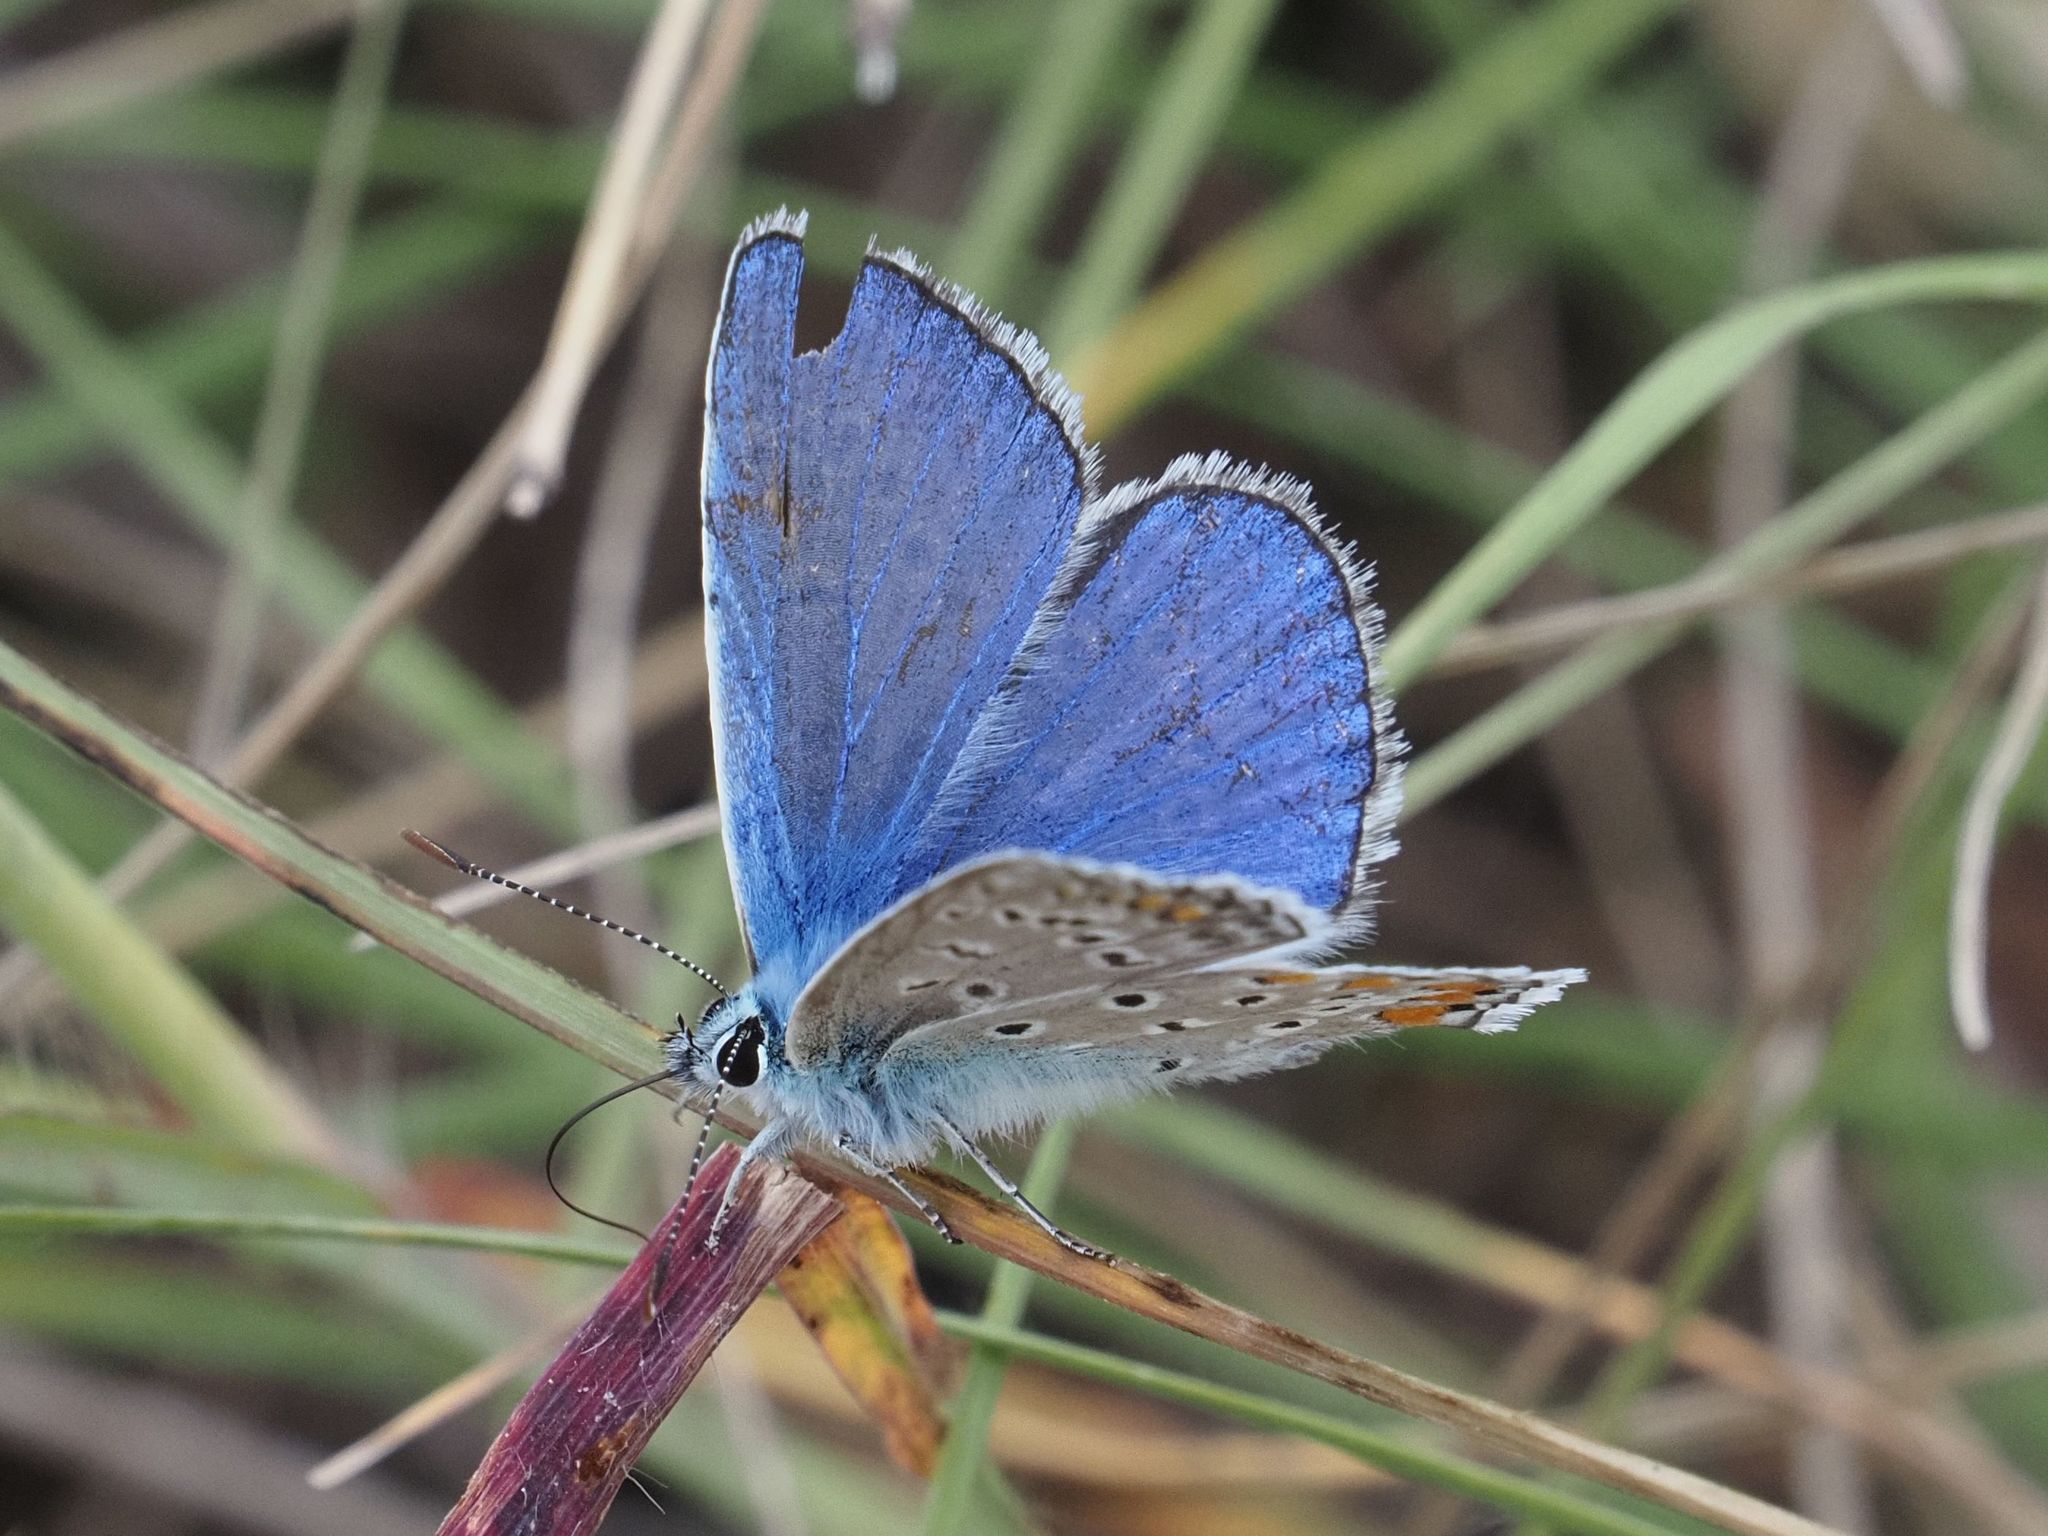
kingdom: Animalia
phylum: Arthropoda
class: Insecta
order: Lepidoptera
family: Lycaenidae
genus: Polyommatus
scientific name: Polyommatus icarus
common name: Common blue
